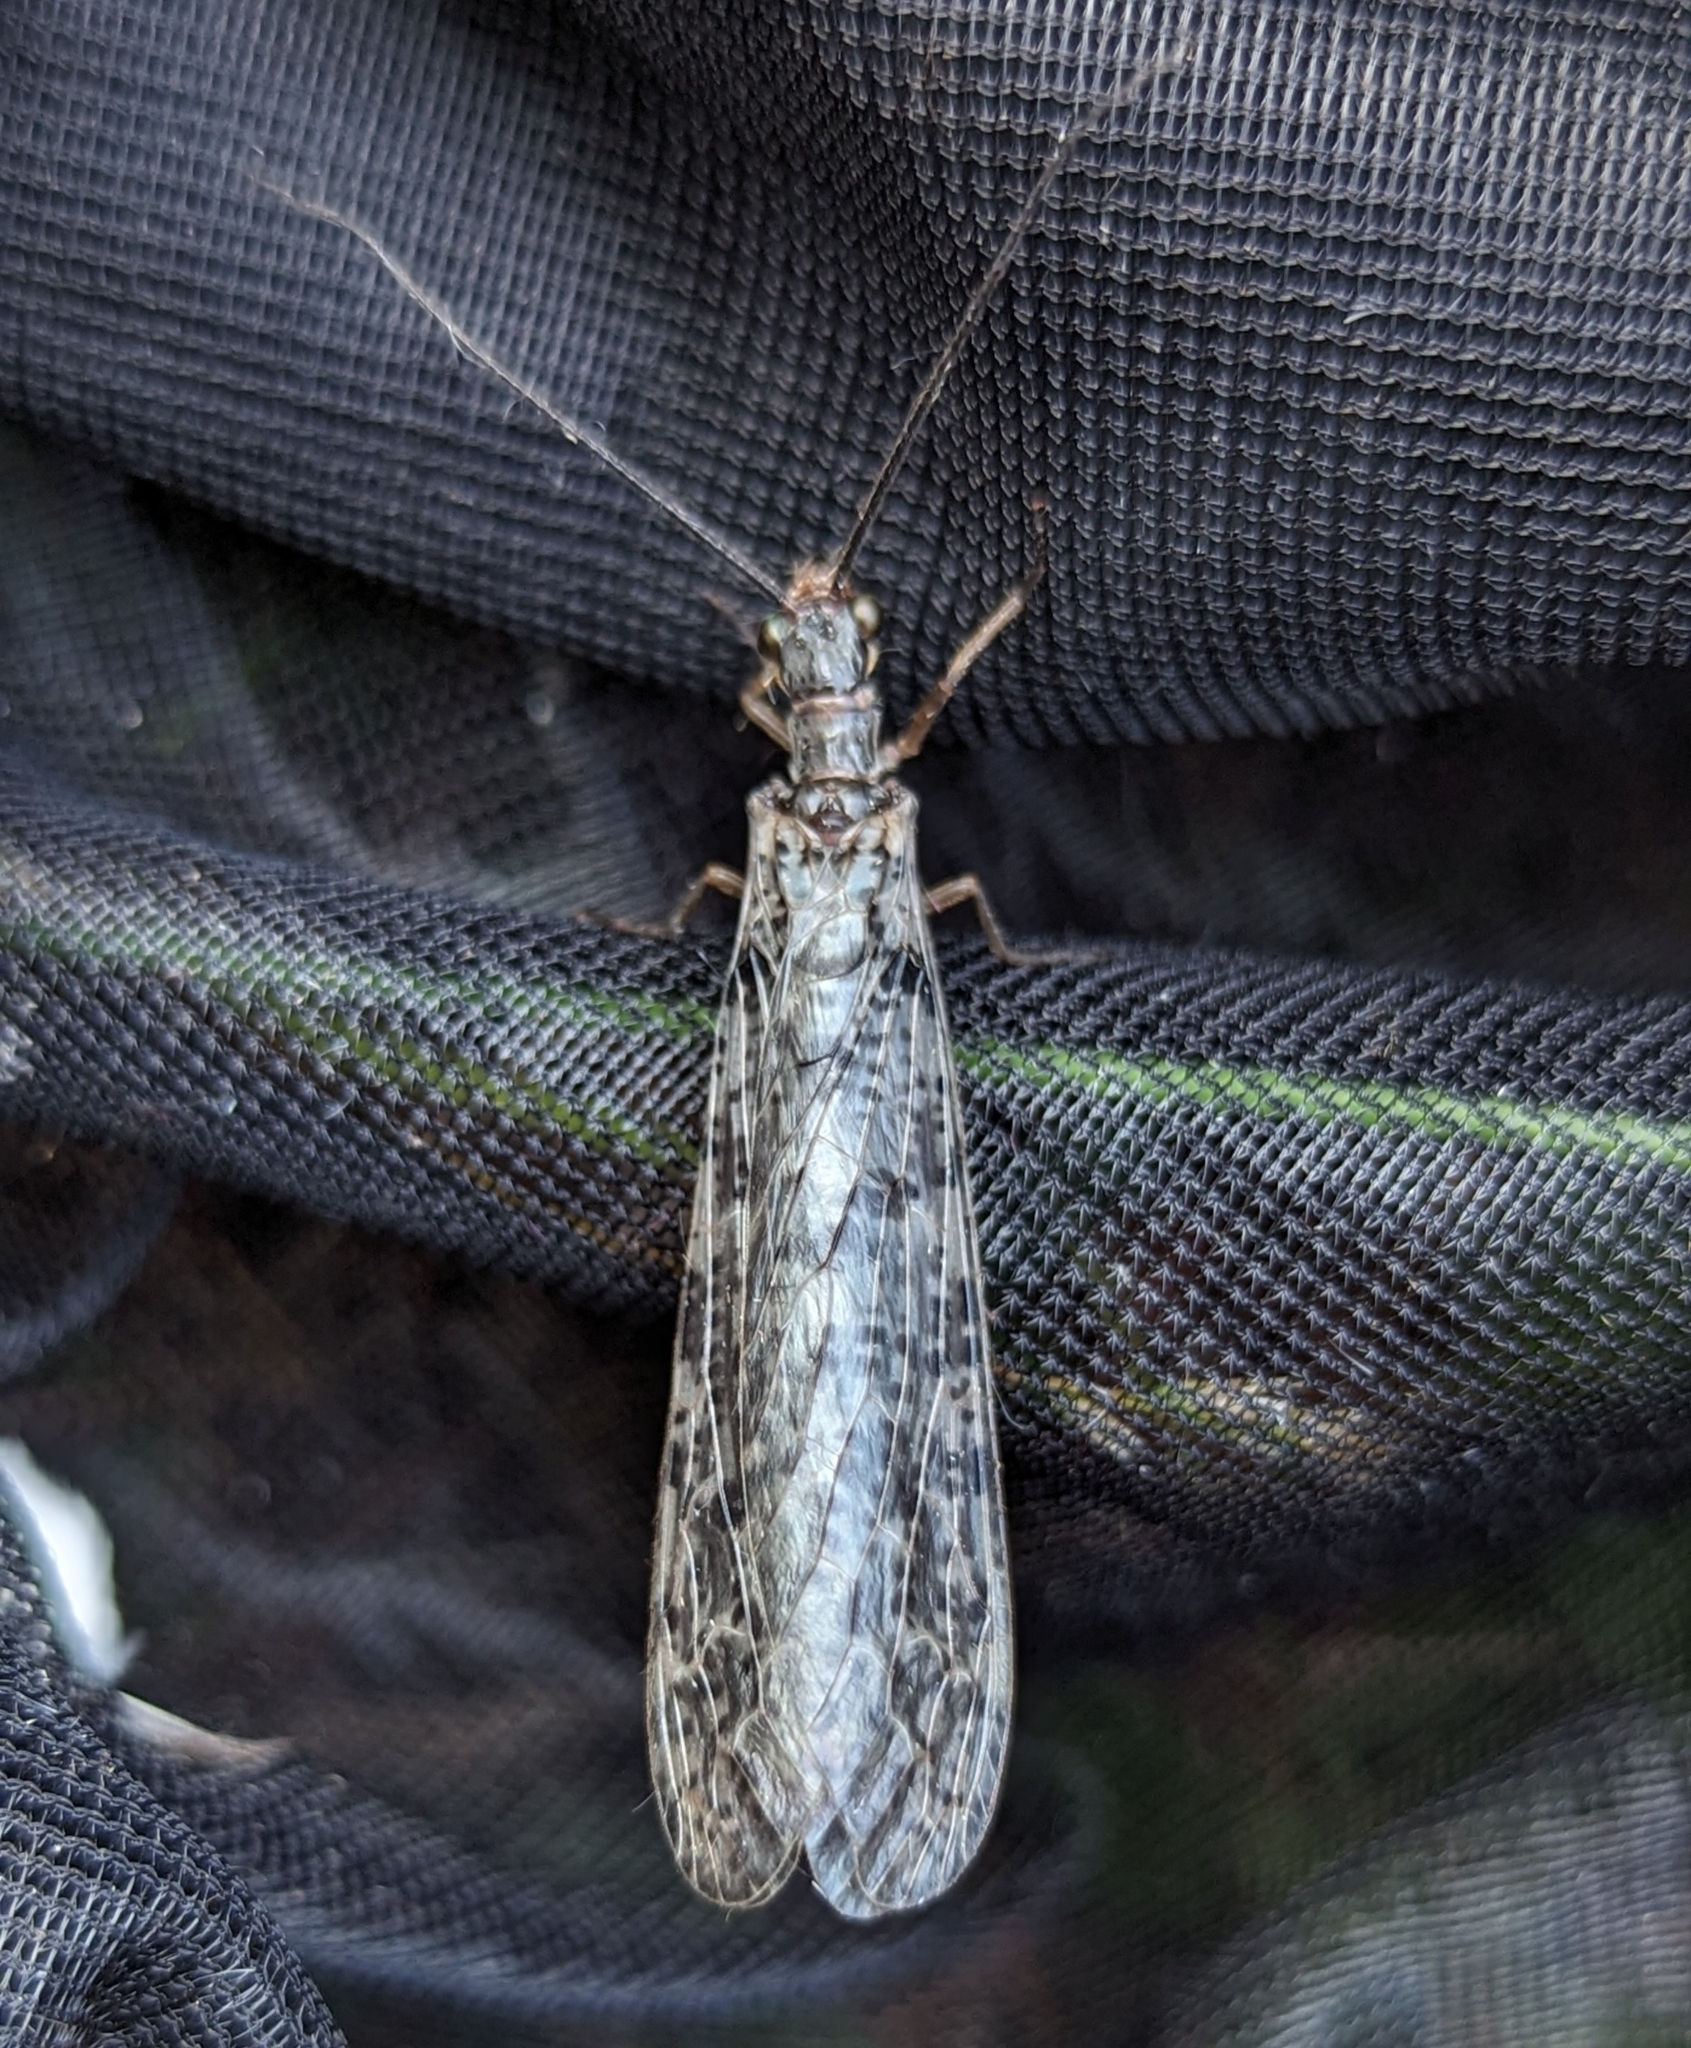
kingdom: Animalia
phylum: Arthropoda
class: Insecta
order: Megaloptera
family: Corydalidae
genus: Protochauliodes
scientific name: Protochauliodes spenceri
